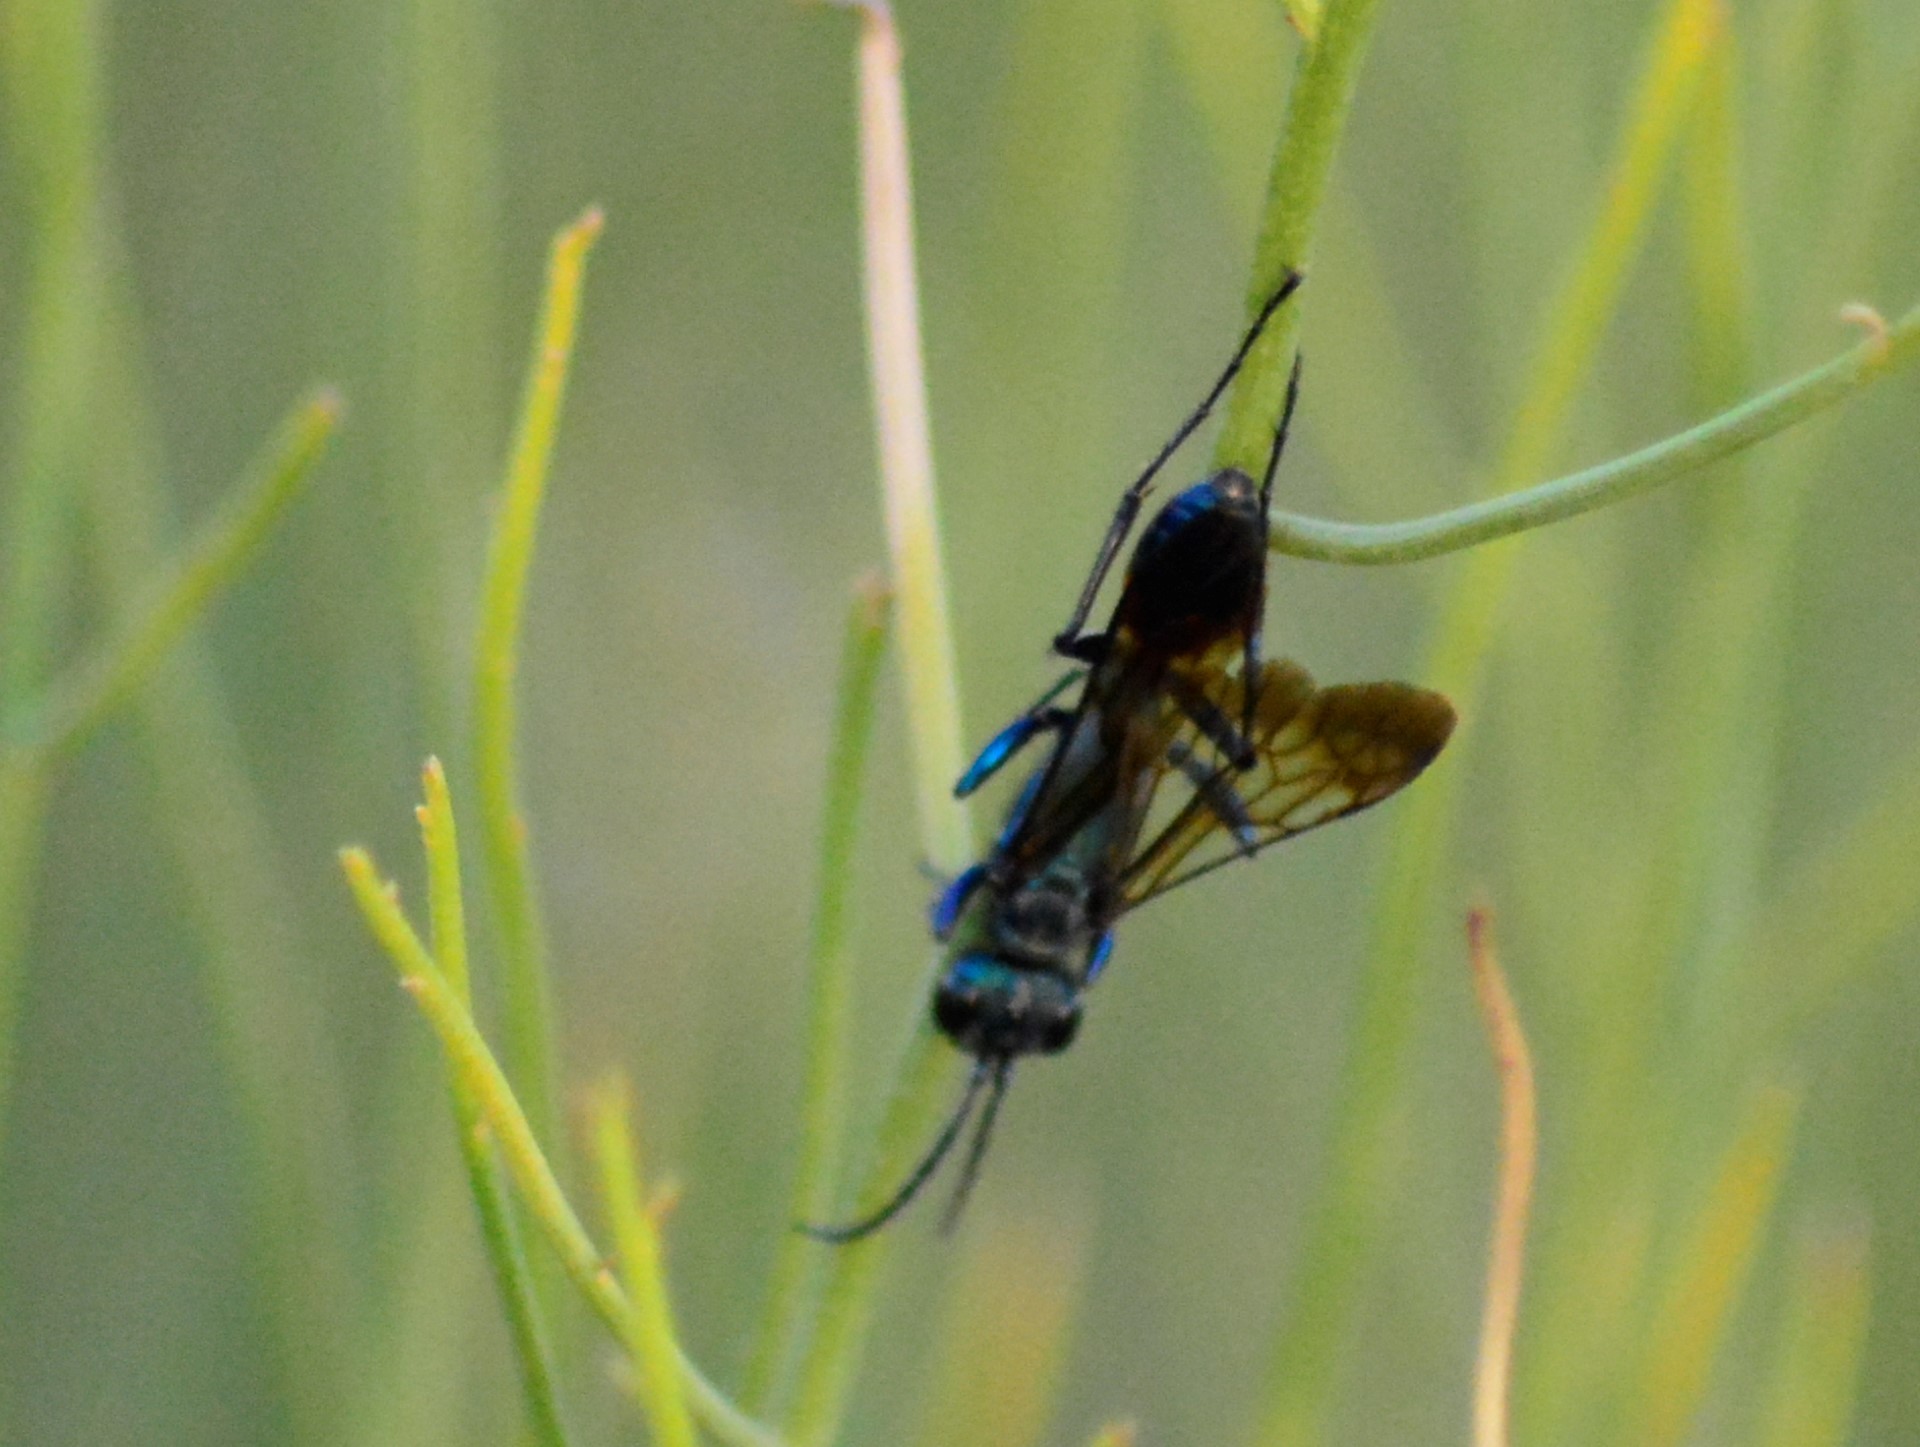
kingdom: Animalia
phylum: Arthropoda
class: Insecta
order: Hymenoptera
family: Sphecidae
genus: Chlorion
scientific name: Chlorion hemiprasinum
